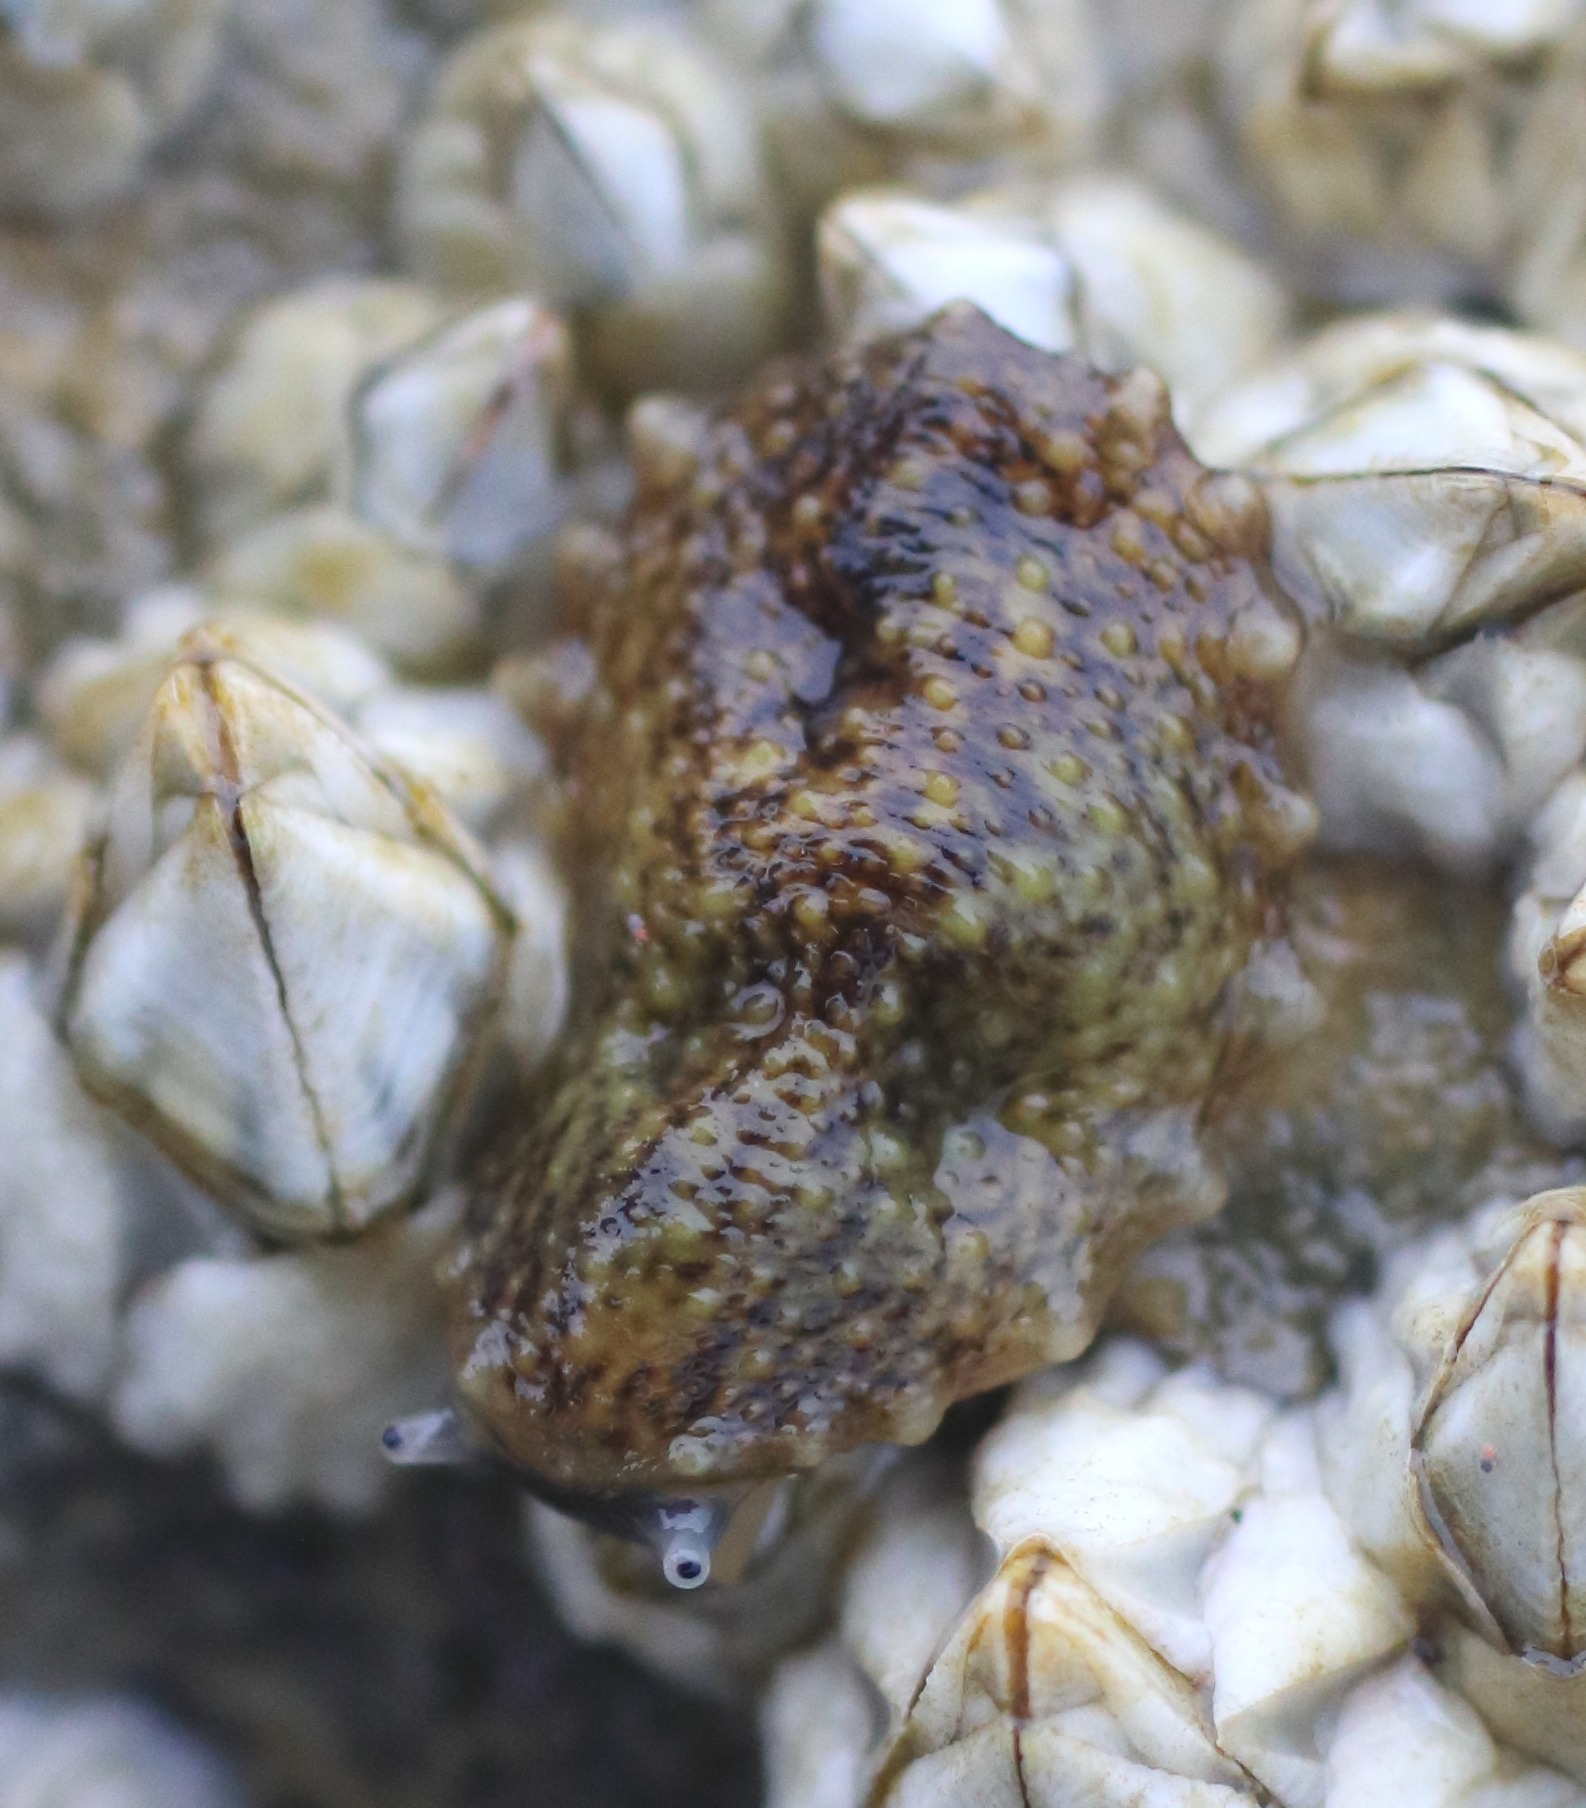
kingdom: Animalia
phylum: Mollusca
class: Gastropoda
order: Systellommatophora
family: Onchidiidae
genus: Onchidella
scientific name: Onchidella carpenteri
